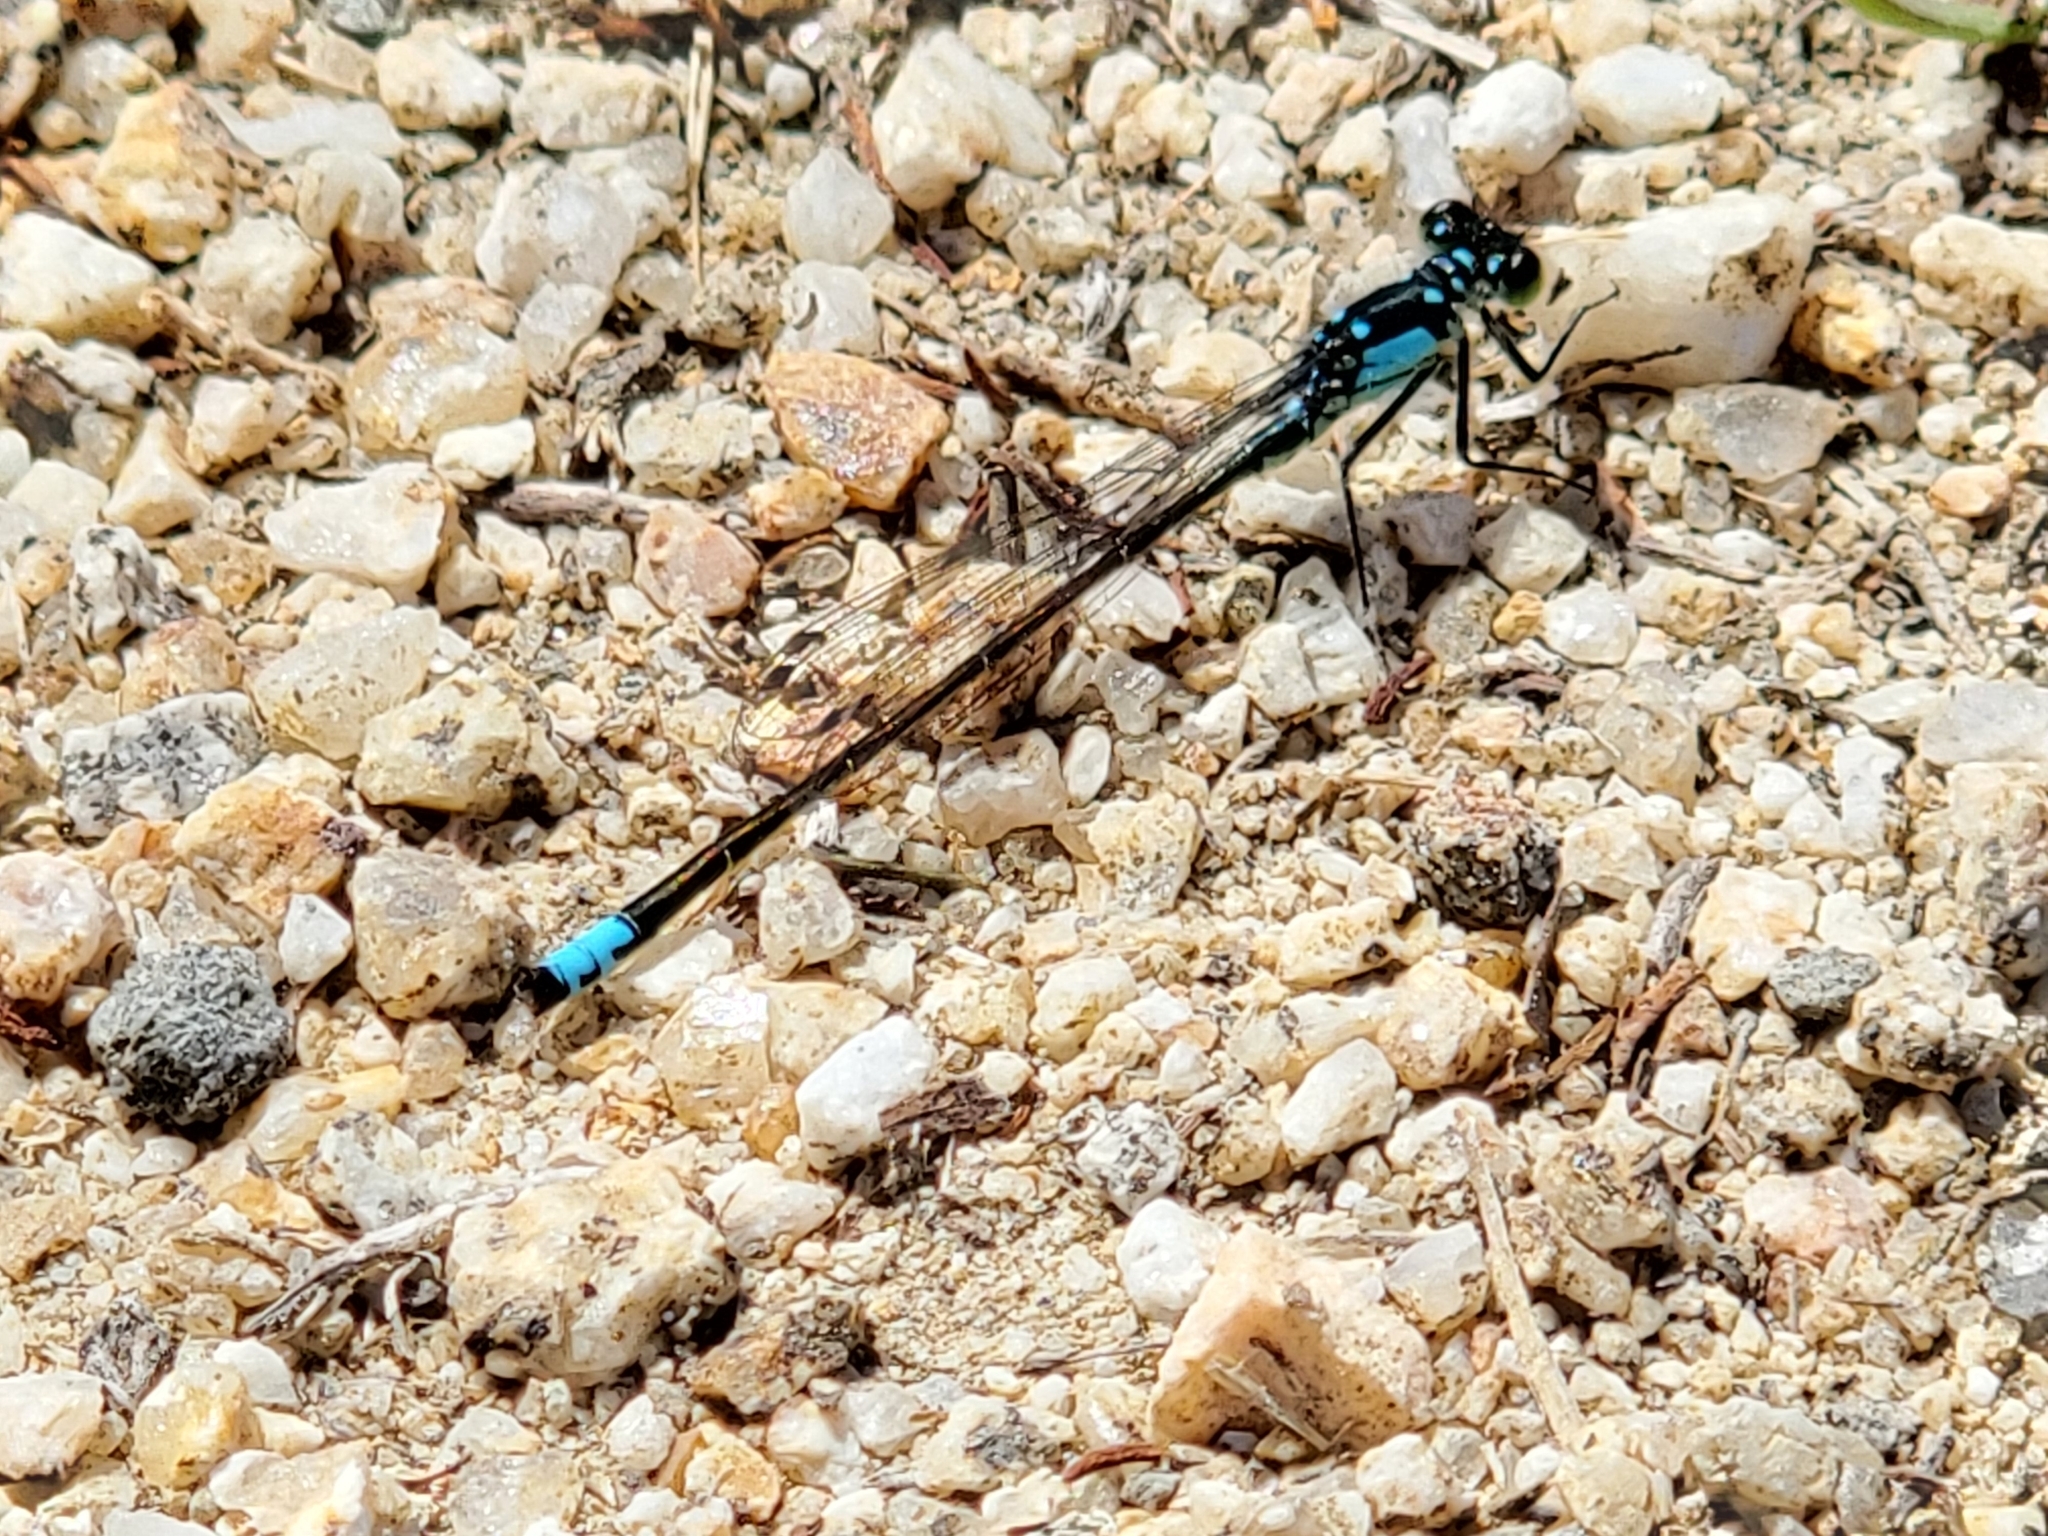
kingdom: Animalia
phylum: Arthropoda
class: Insecta
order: Odonata
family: Coenagrionidae
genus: Ischnura
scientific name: Ischnura cervula
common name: Pacific forktail
